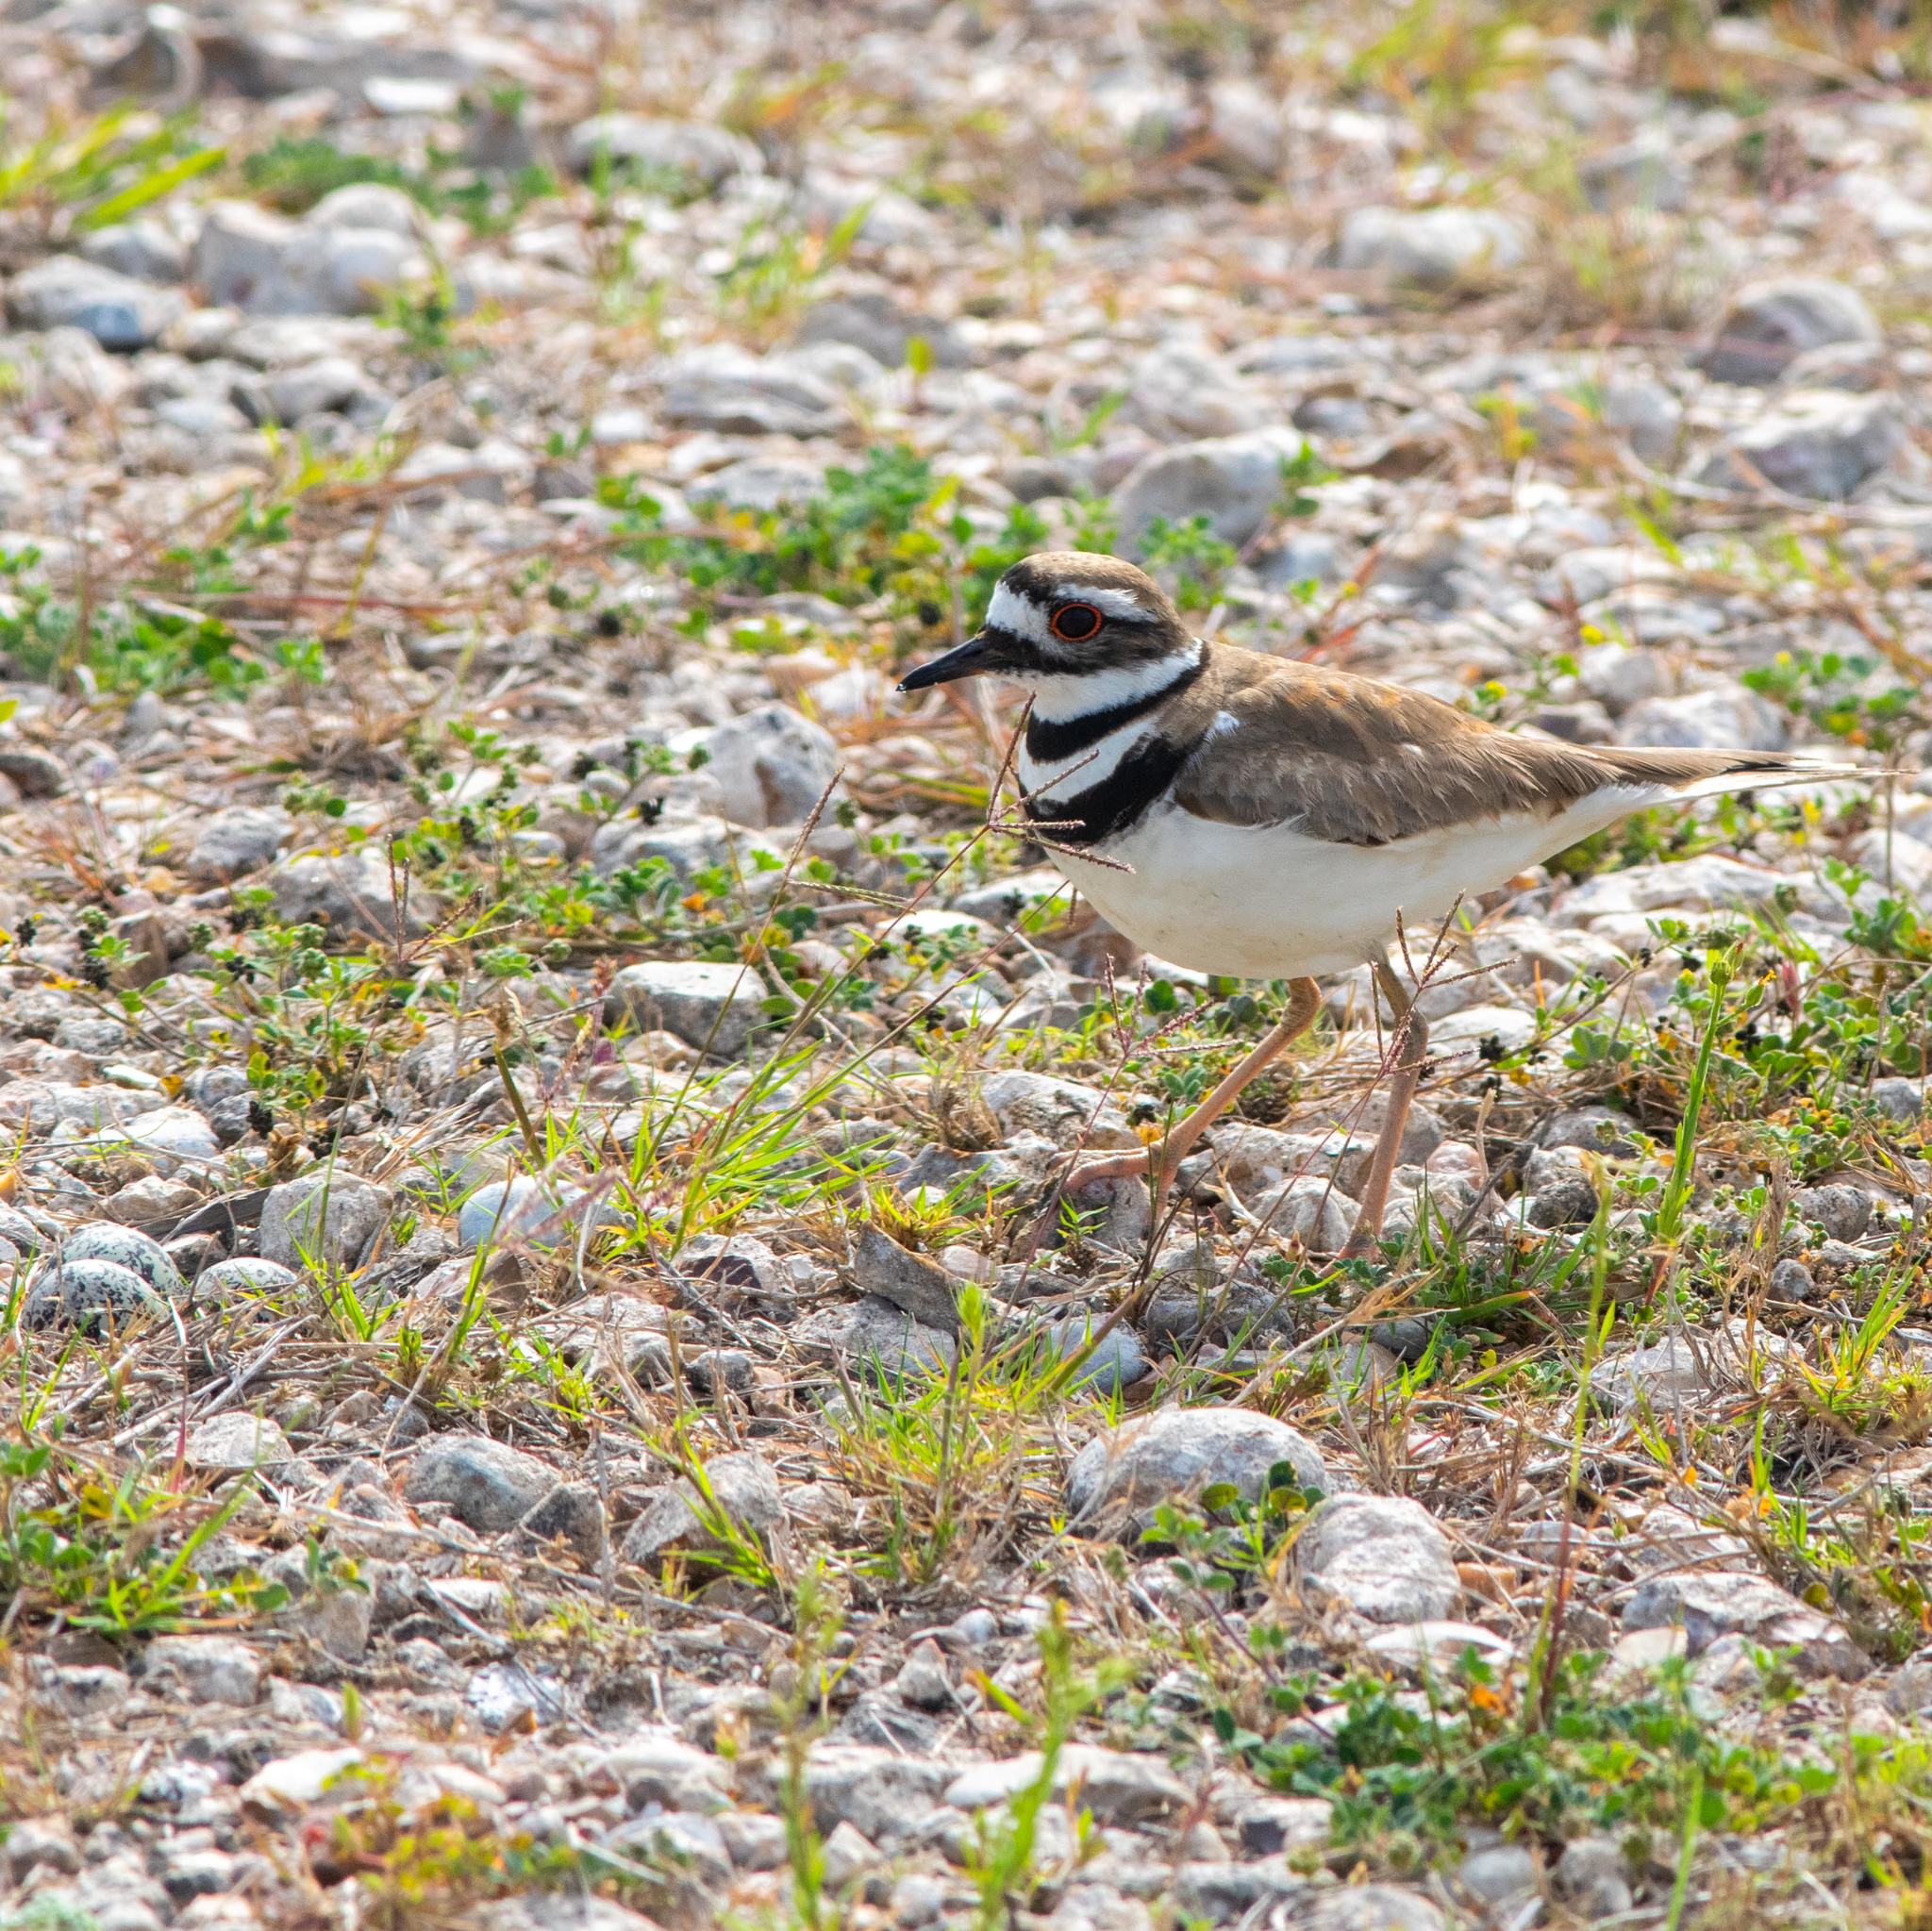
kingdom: Animalia
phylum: Chordata
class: Aves
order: Charadriiformes
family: Charadriidae
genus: Charadrius
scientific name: Charadrius vociferus
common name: Killdeer
